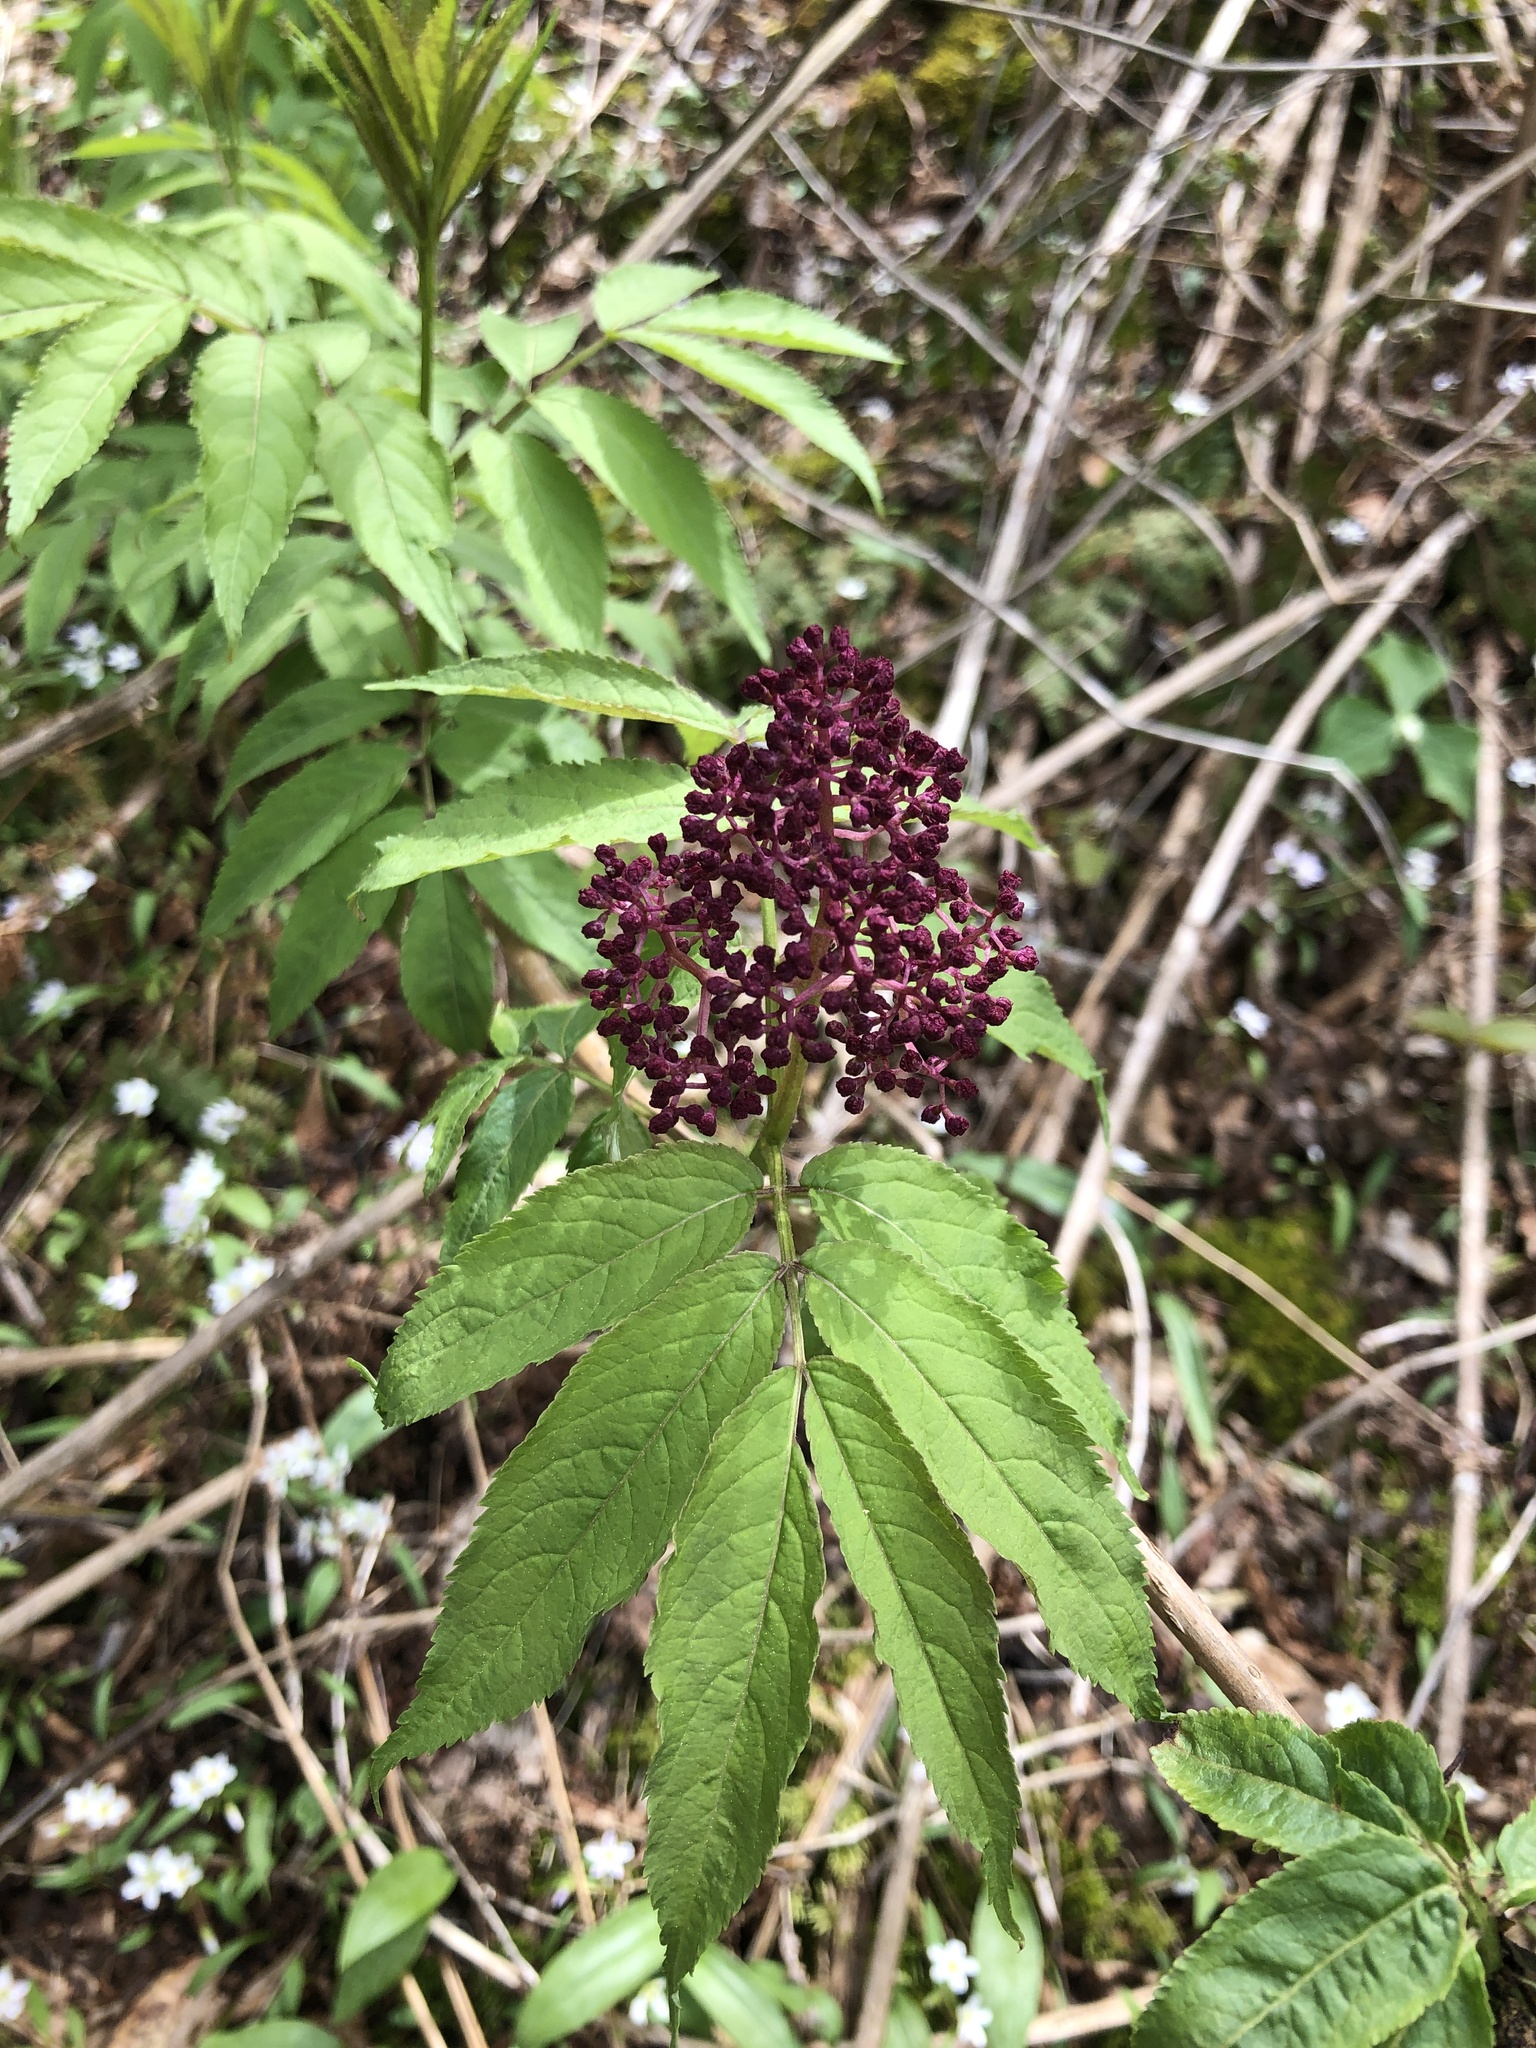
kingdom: Plantae
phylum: Tracheophyta
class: Magnoliopsida
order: Dipsacales
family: Viburnaceae
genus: Sambucus
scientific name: Sambucus racemosa
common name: Red-berried elder
